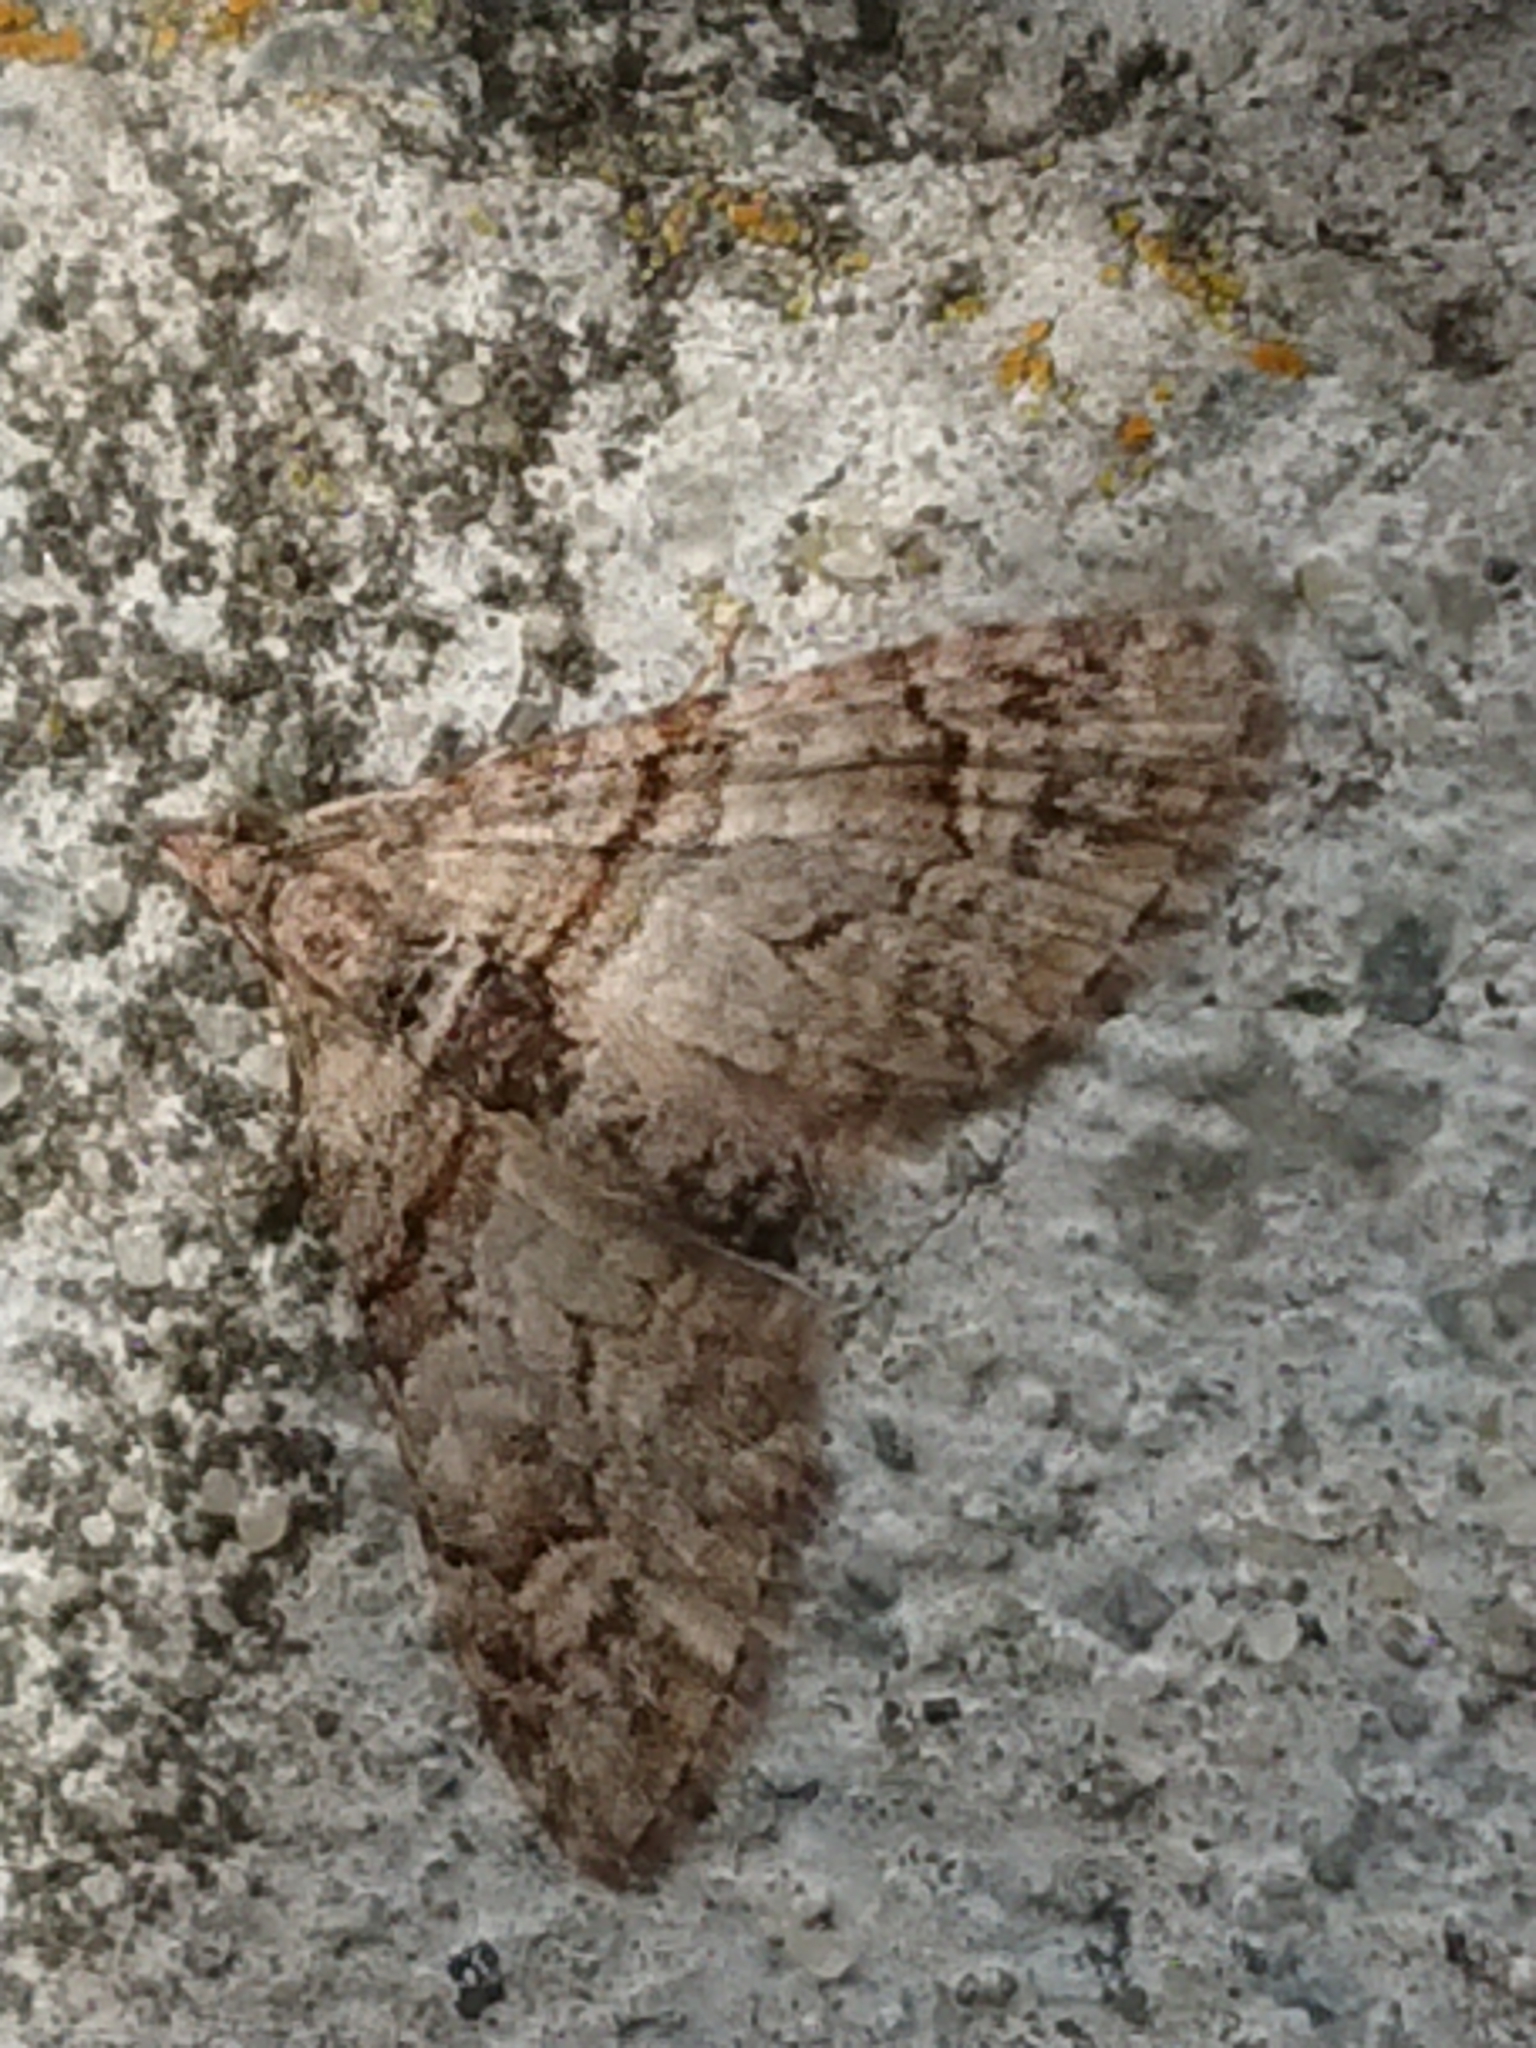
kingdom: Animalia
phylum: Arthropoda
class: Insecta
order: Lepidoptera
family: Geometridae
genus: Phrissogonus
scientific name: Phrissogonus laticostata
